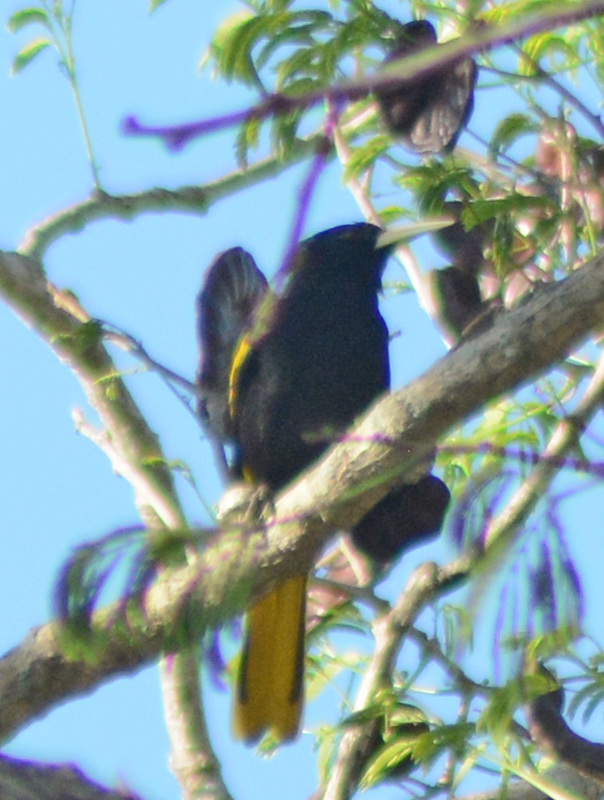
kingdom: Animalia
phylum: Chordata
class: Aves
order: Passeriformes
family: Icteridae
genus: Cacicus
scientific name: Cacicus melanicterus
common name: Yellow-winged cacique
